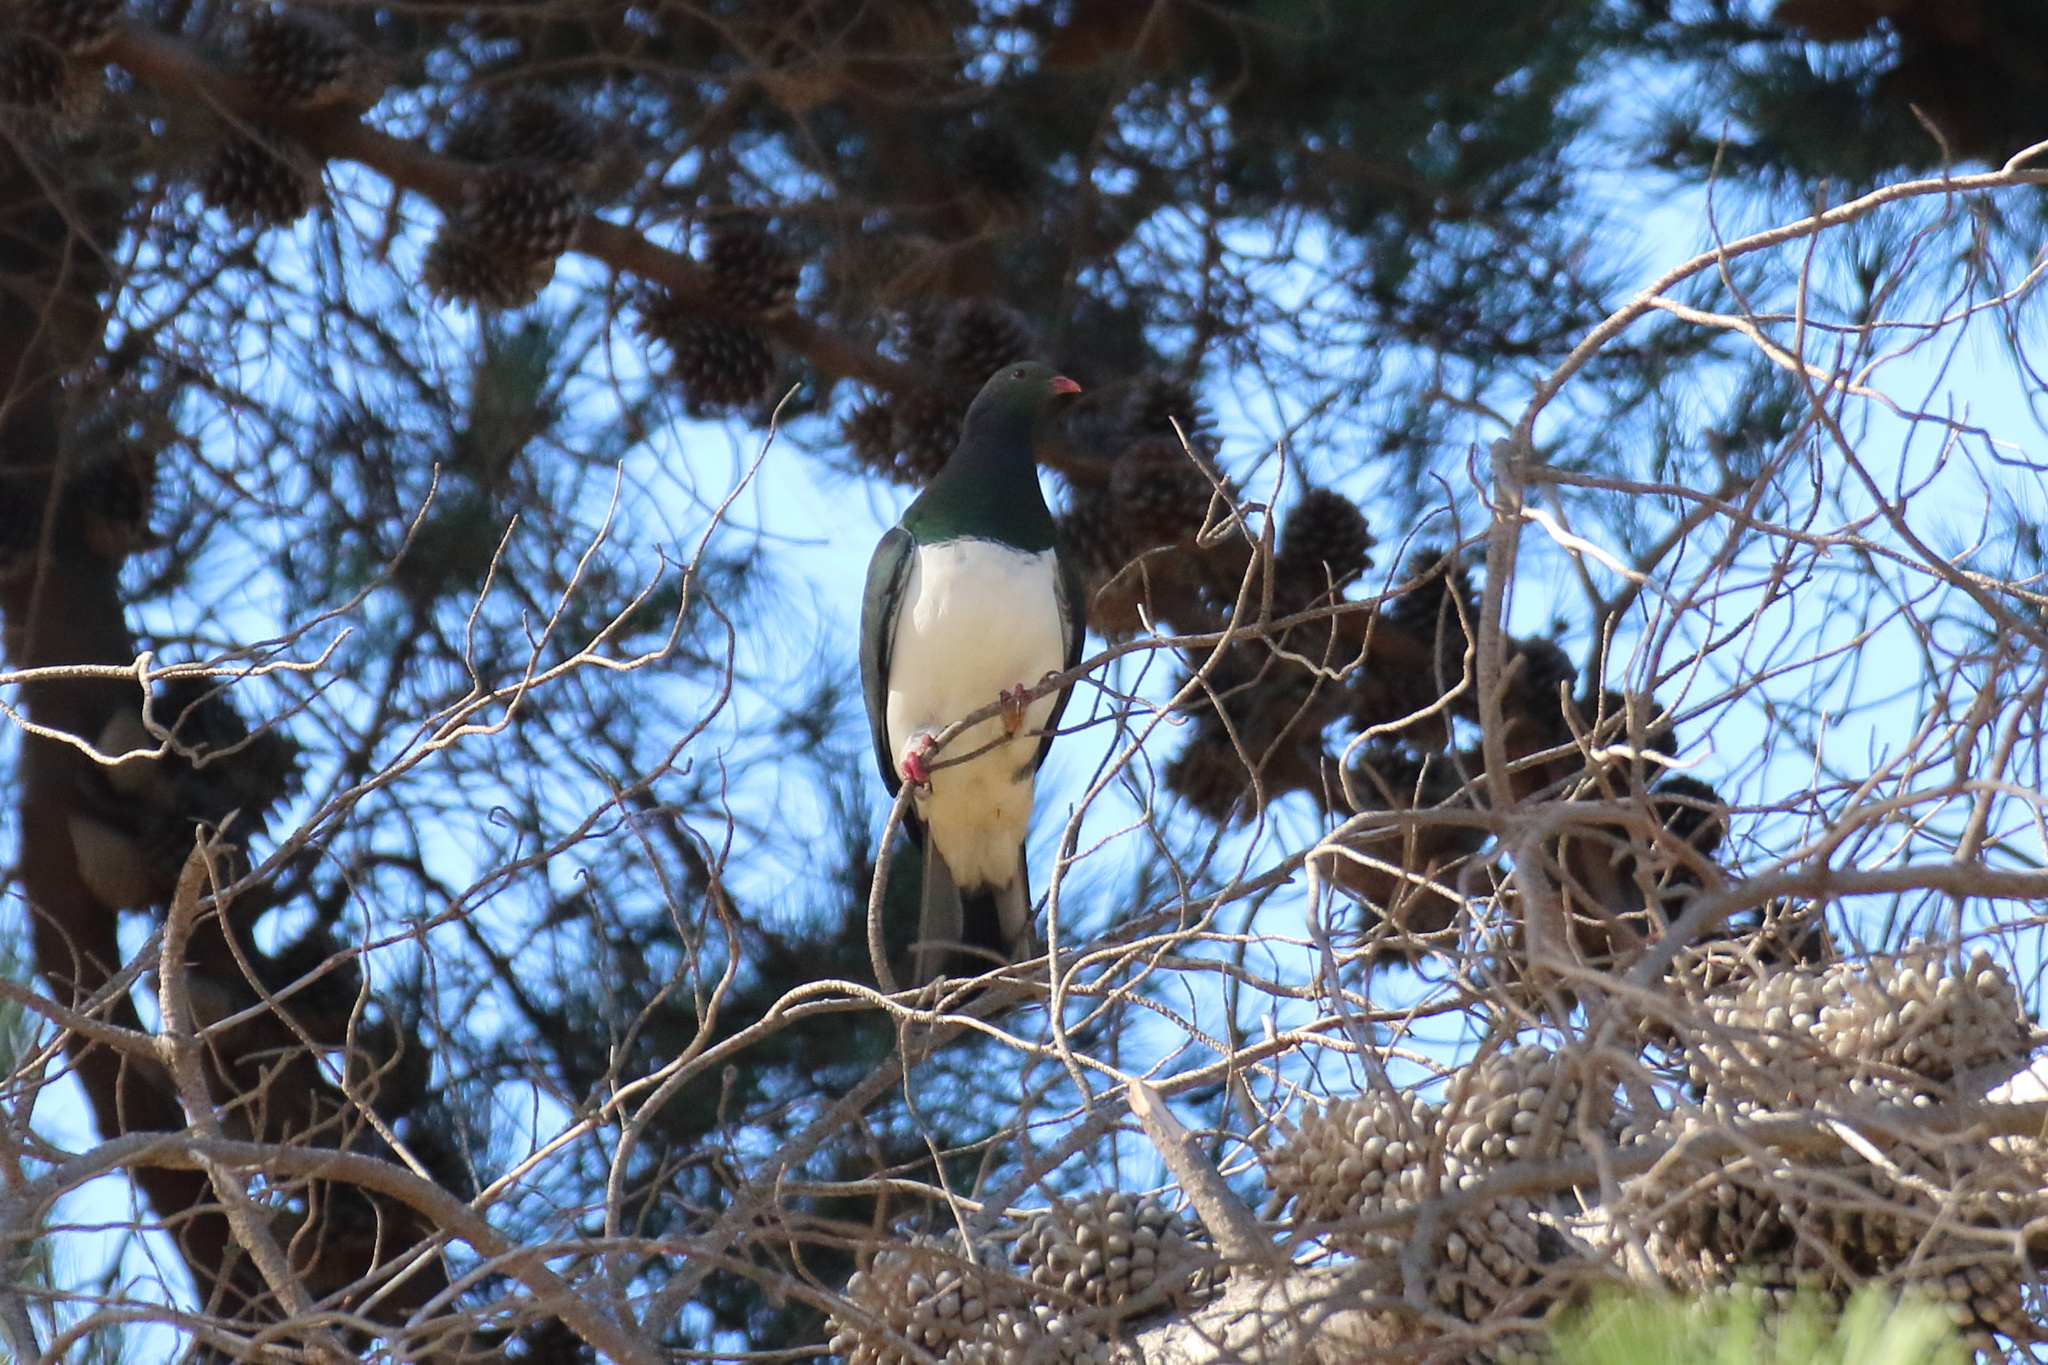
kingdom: Animalia
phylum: Chordata
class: Aves
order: Columbiformes
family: Columbidae
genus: Hemiphaga
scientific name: Hemiphaga novaeseelandiae
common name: New zealand pigeon
